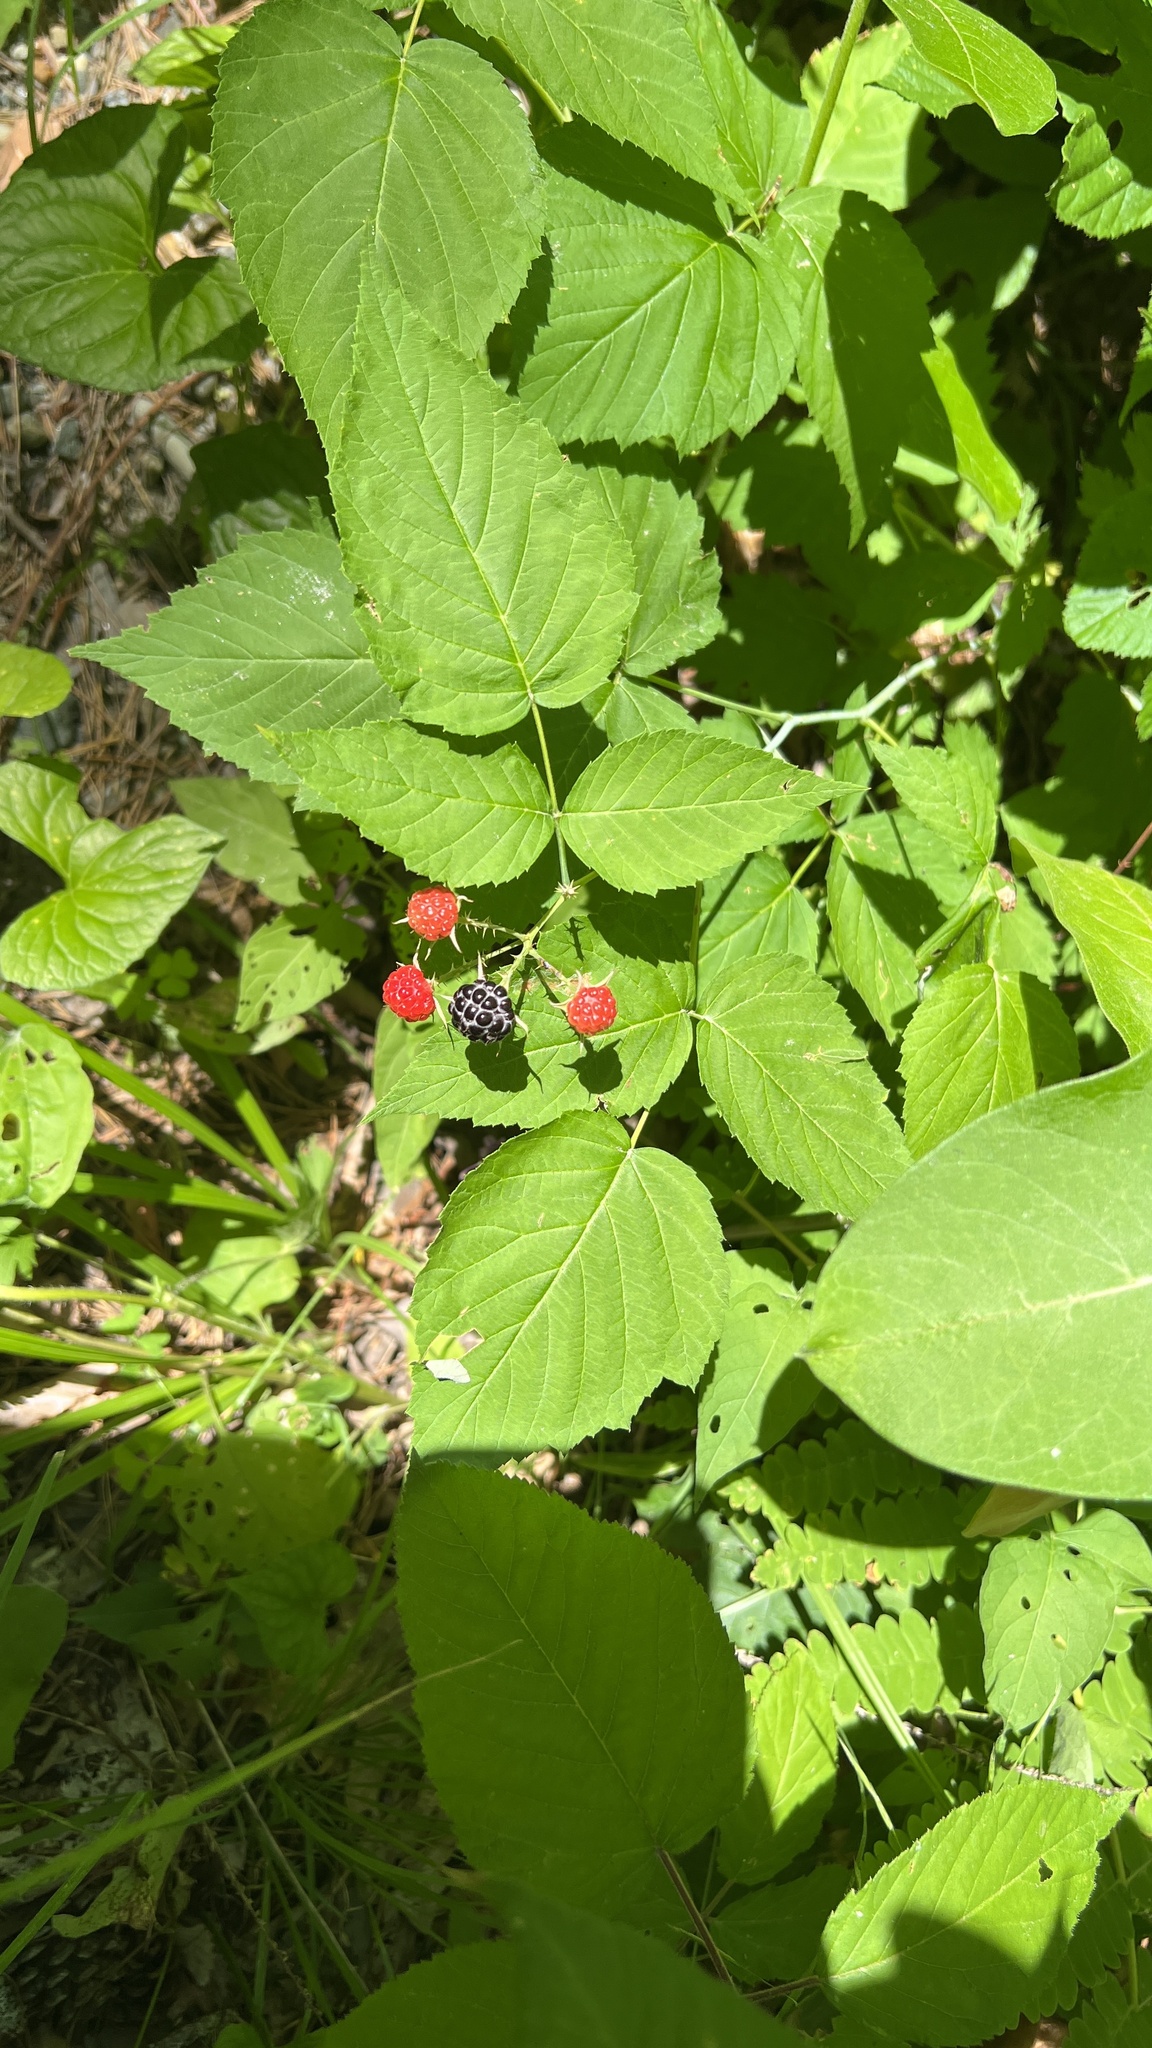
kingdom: Plantae
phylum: Tracheophyta
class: Magnoliopsida
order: Rosales
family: Rosaceae
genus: Rubus
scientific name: Rubus occidentalis
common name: Black raspberry
